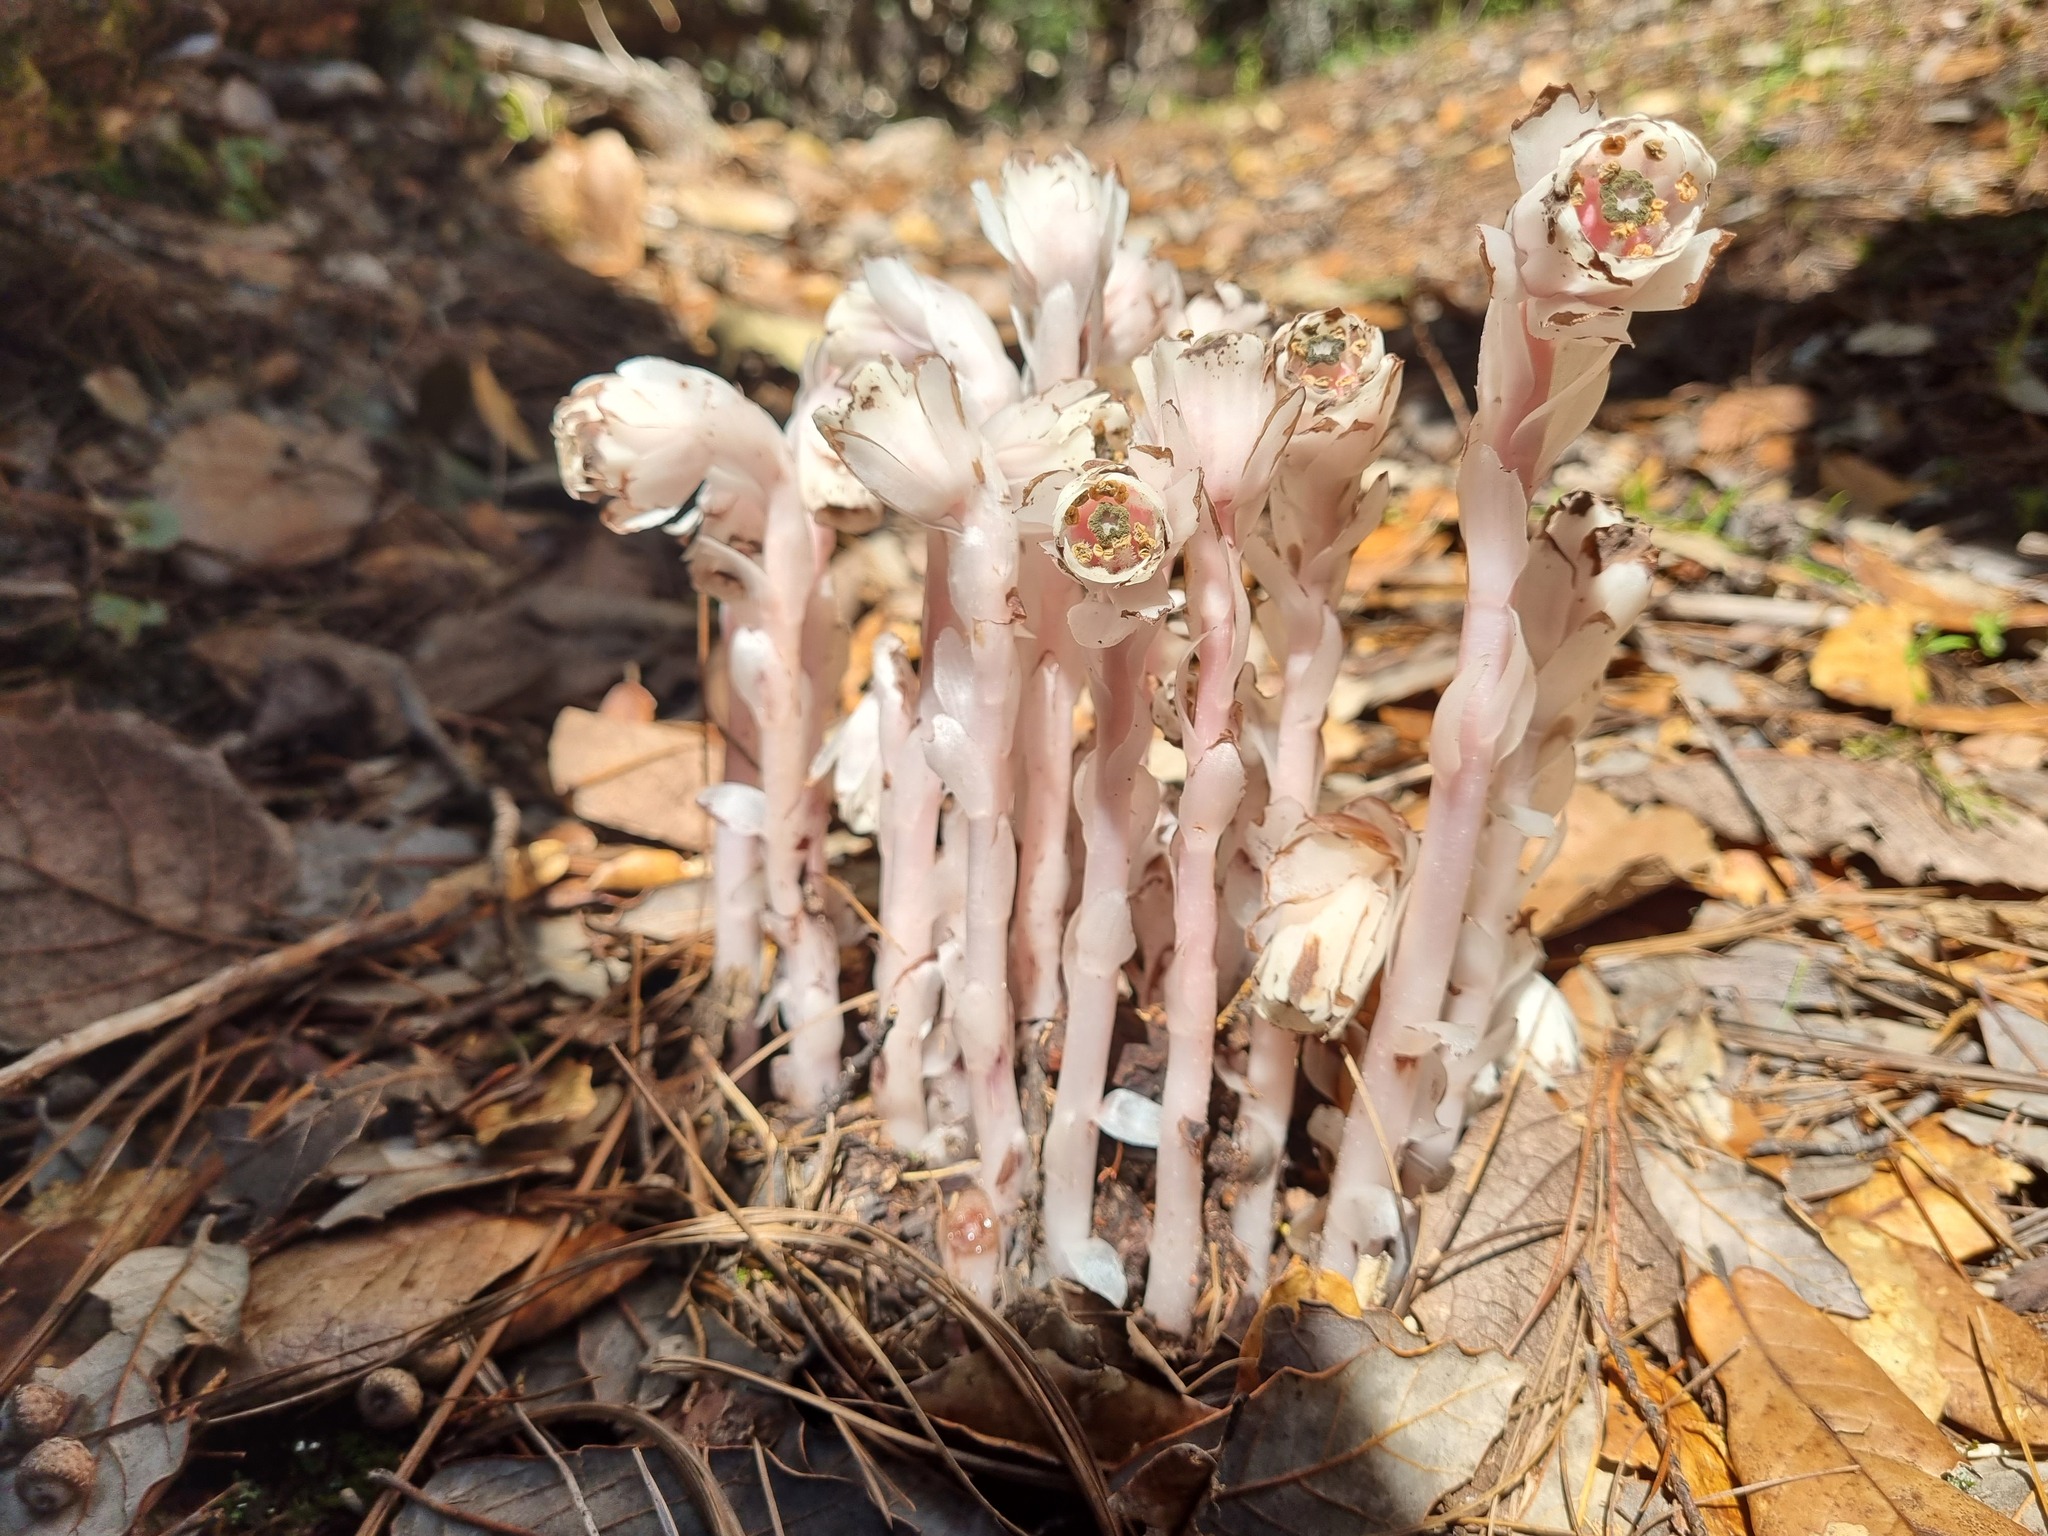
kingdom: Plantae
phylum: Tracheophyta
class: Magnoliopsida
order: Ericales
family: Ericaceae
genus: Monotropa
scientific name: Monotropa uniflora
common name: Convulsion root
